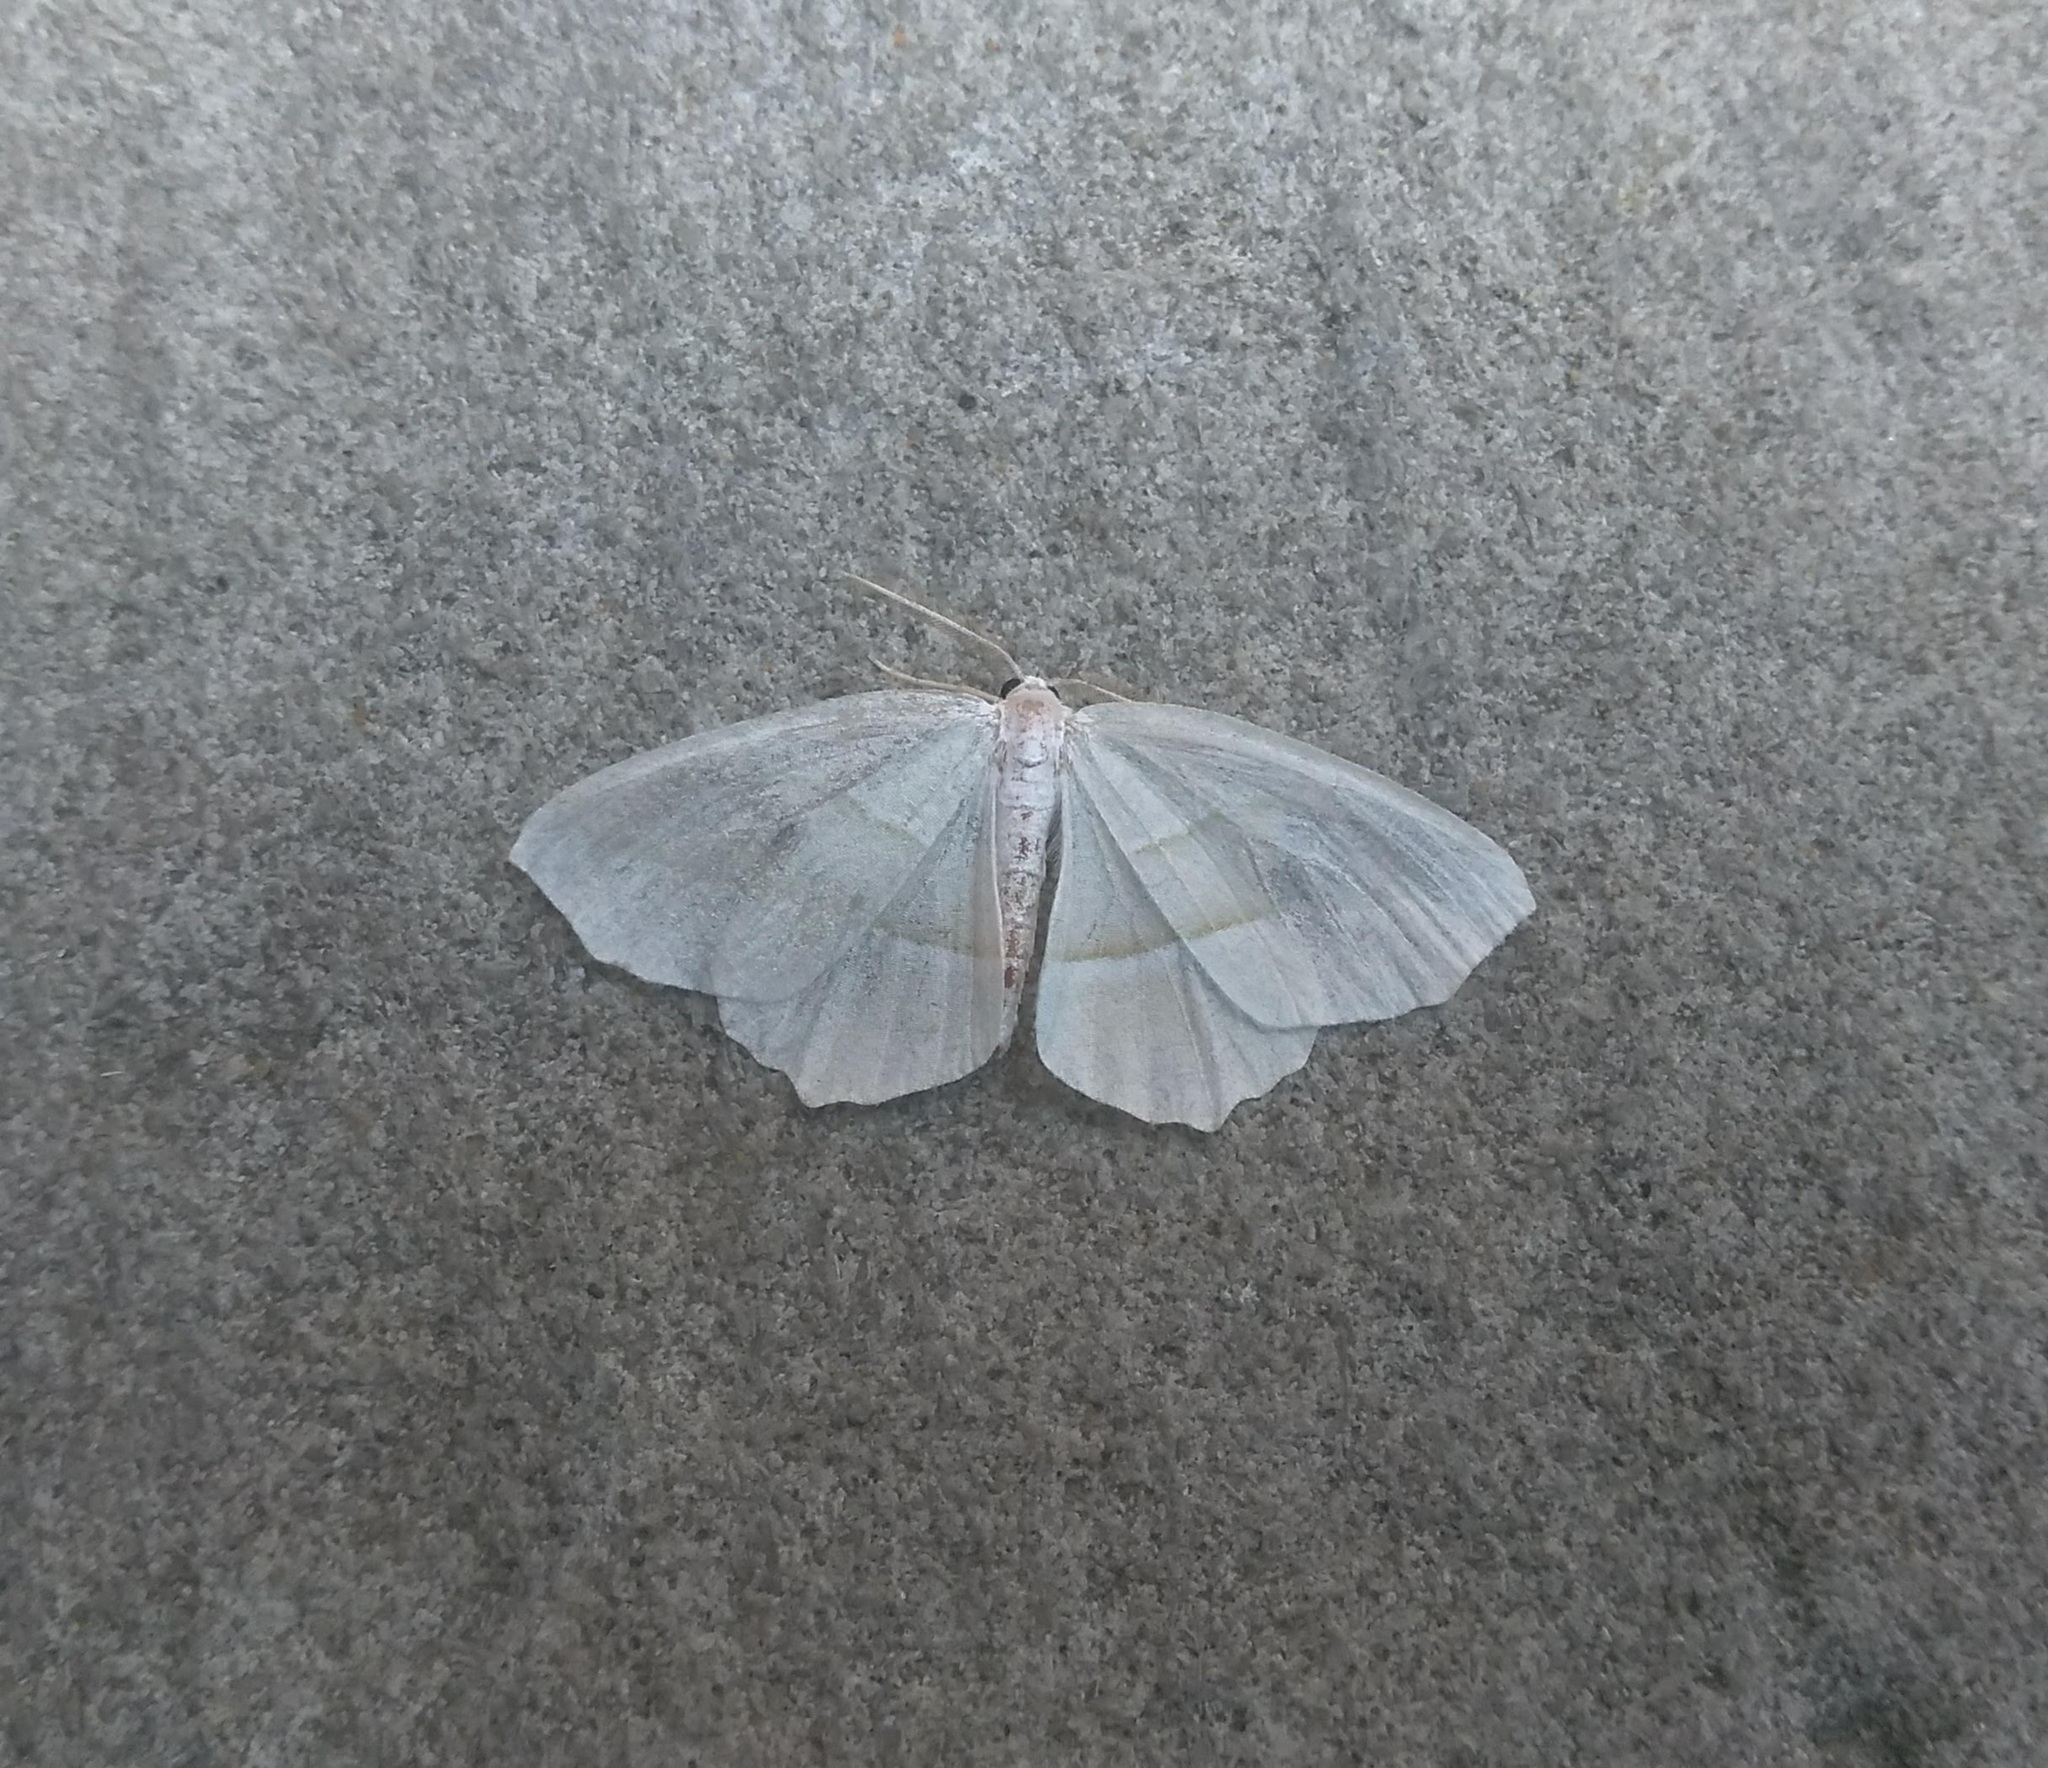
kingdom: Animalia
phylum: Arthropoda
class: Insecta
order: Lepidoptera
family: Geometridae
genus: Campaea
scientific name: Campaea perlata
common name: Fringed looper
